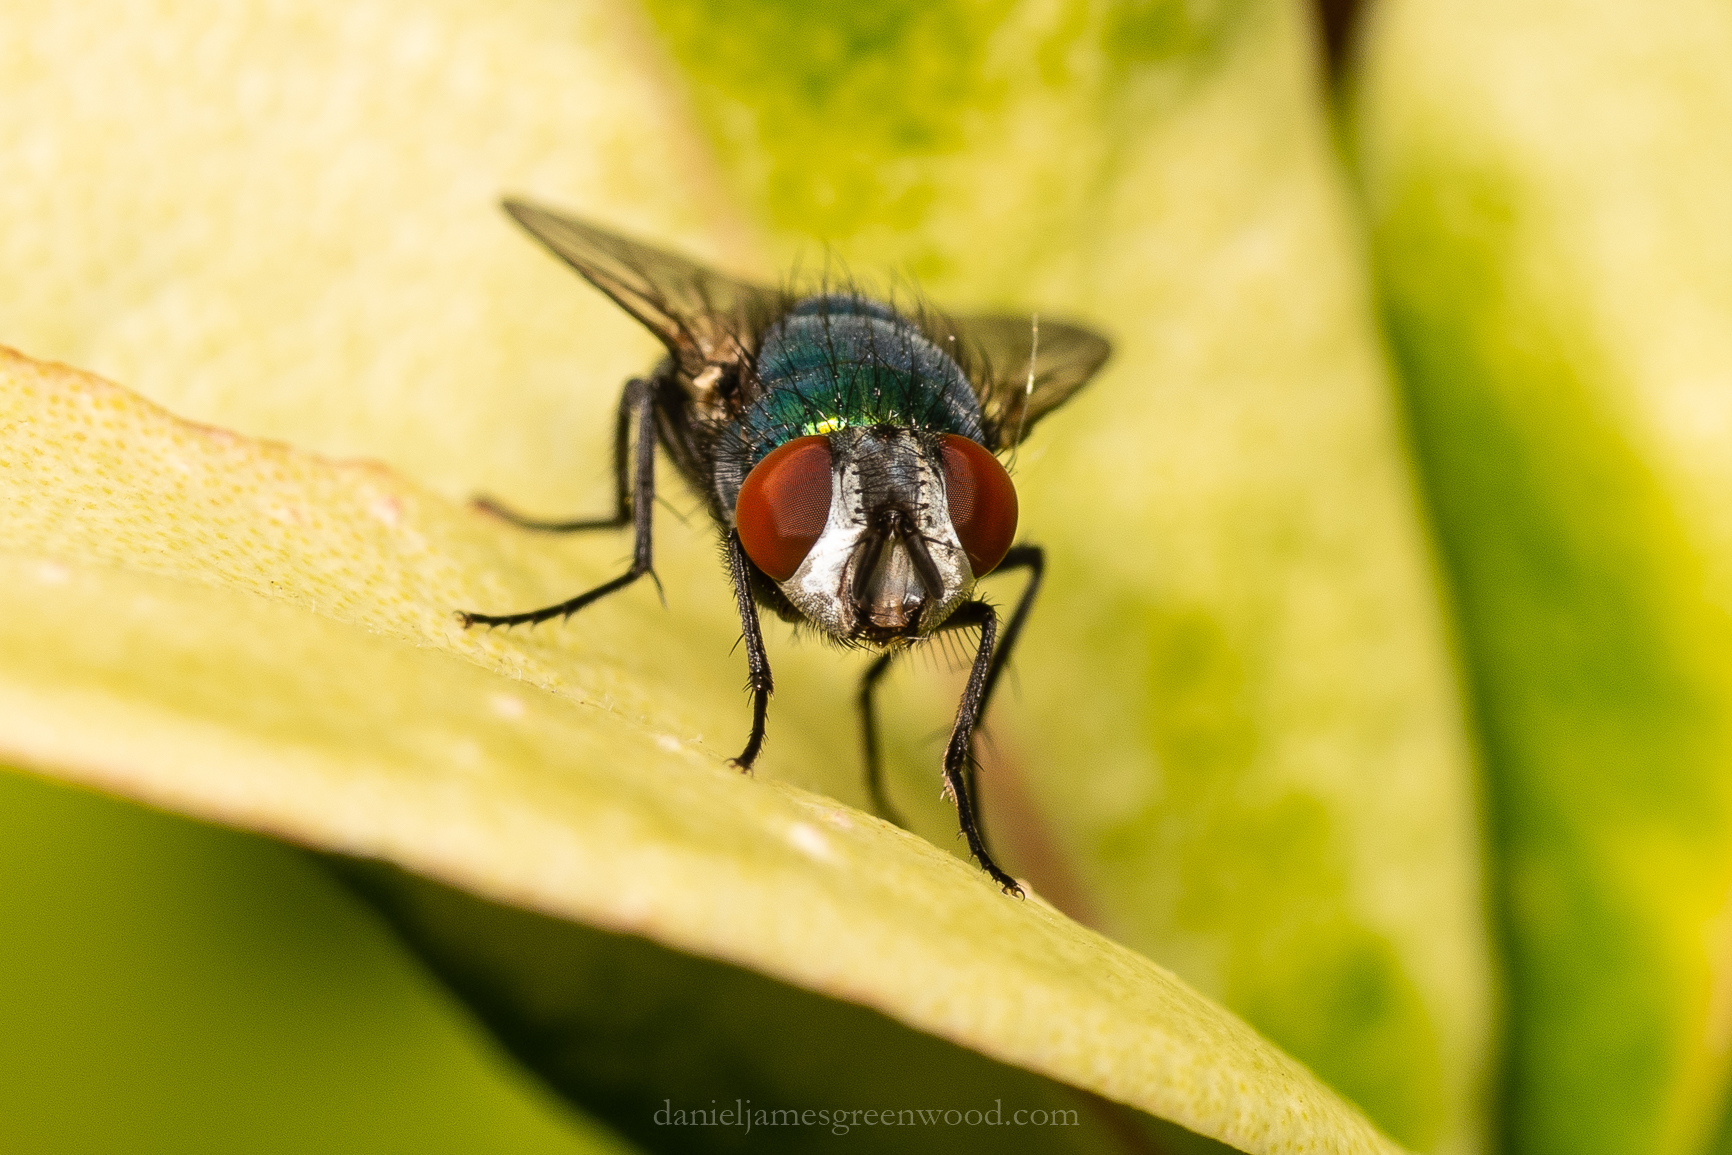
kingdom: Animalia
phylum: Arthropoda
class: Insecta
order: Diptera
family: Calliphoridae
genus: Lucilia
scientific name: Lucilia sericata
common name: Blow fly
